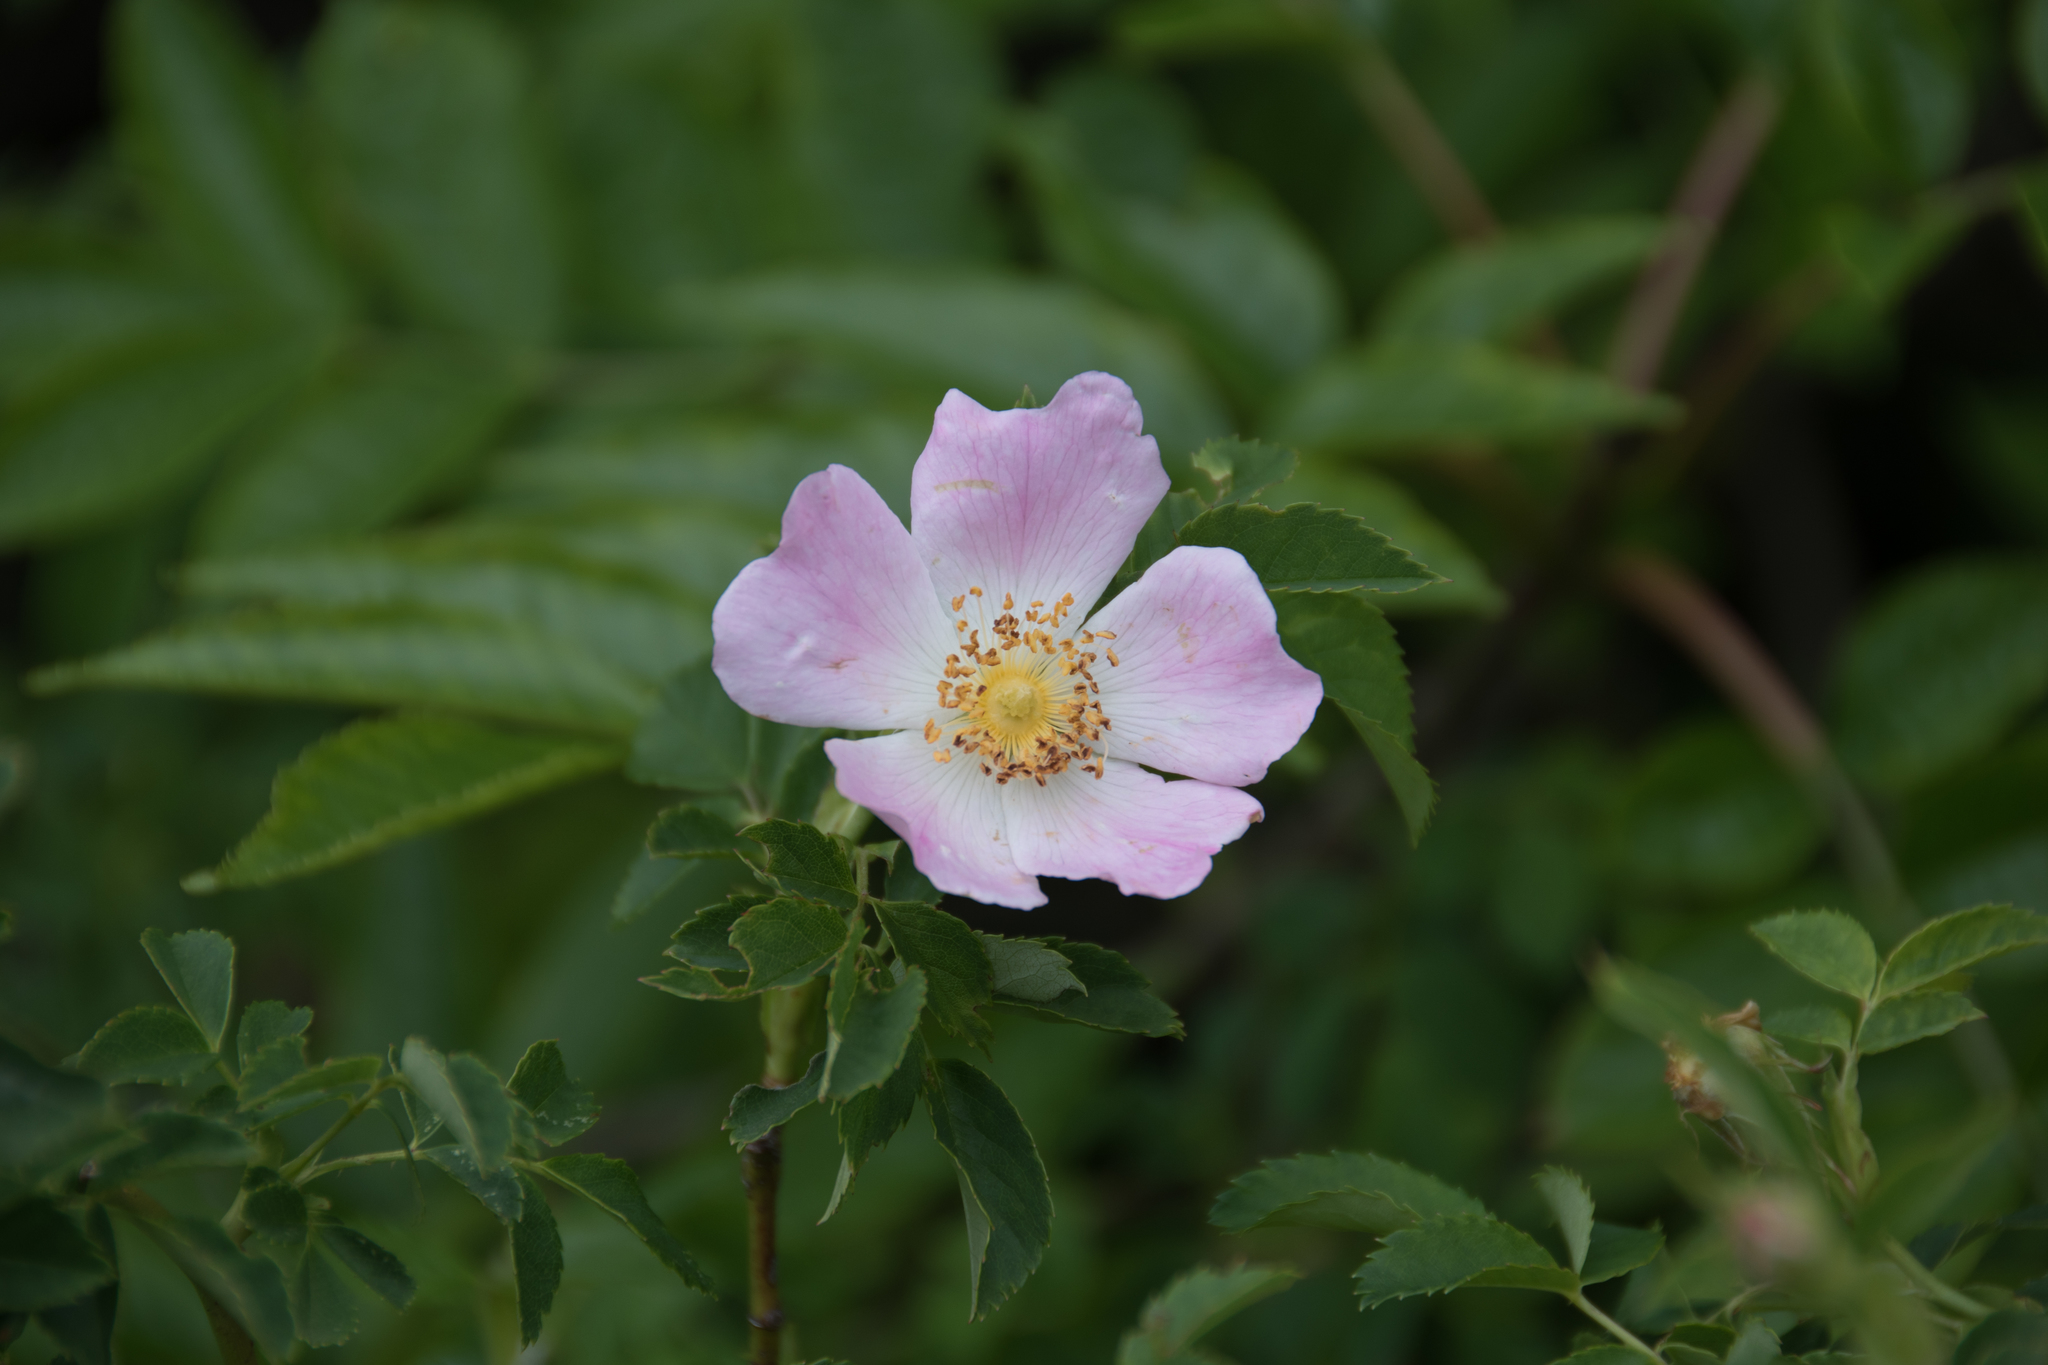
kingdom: Plantae
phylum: Tracheophyta
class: Magnoliopsida
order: Rosales
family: Rosaceae
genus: Rosa
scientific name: Rosa canina
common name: Dog rose
